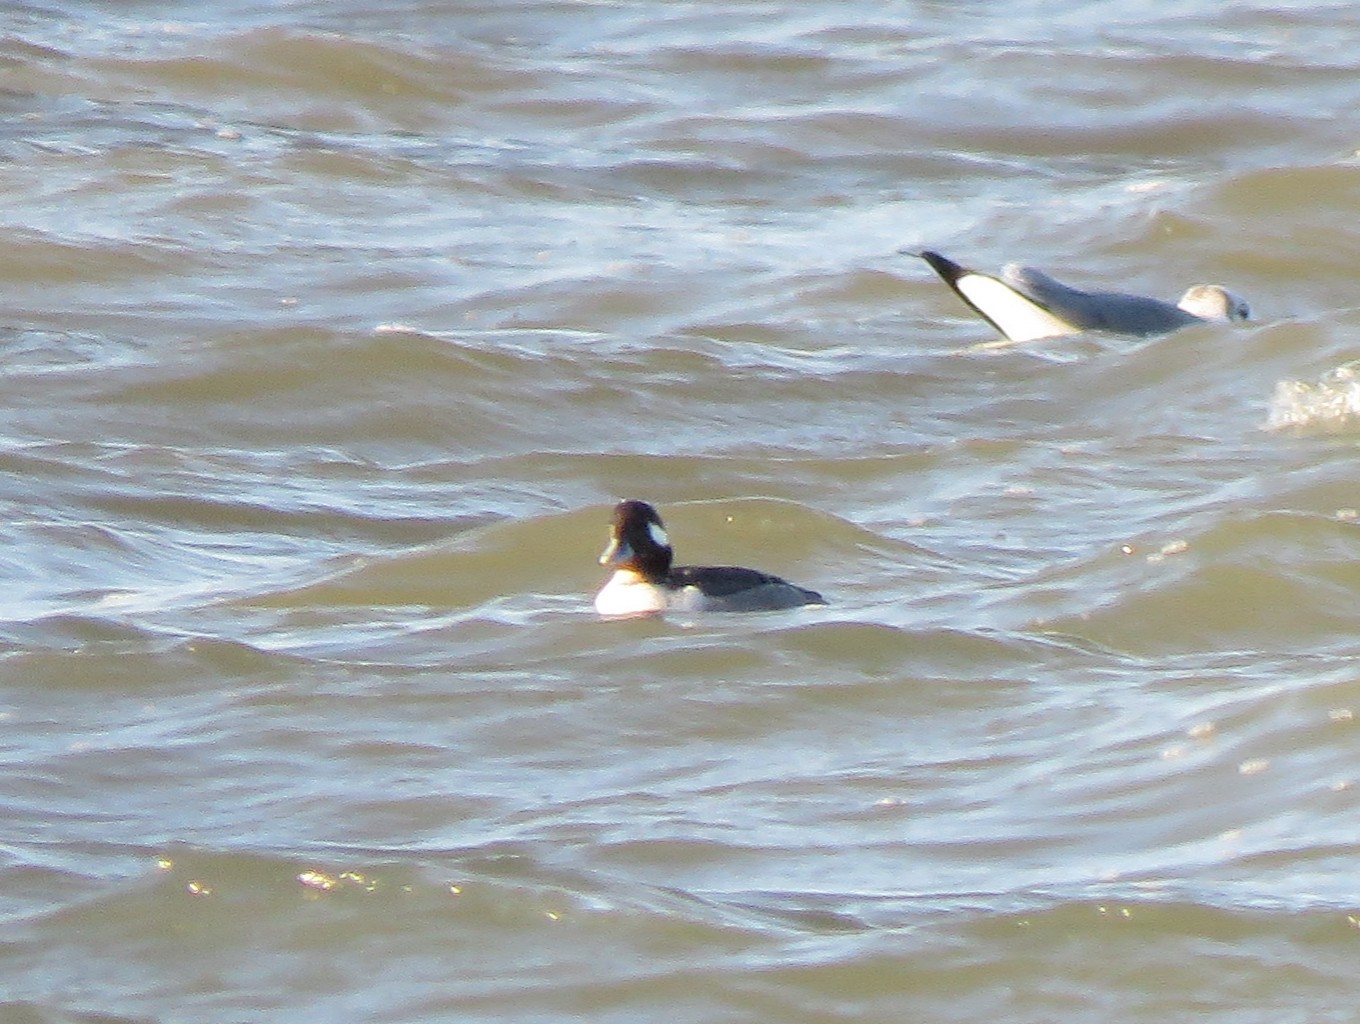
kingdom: Animalia
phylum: Chordata
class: Aves
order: Anseriformes
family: Anatidae
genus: Bucephala
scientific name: Bucephala albeola
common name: Bufflehead
